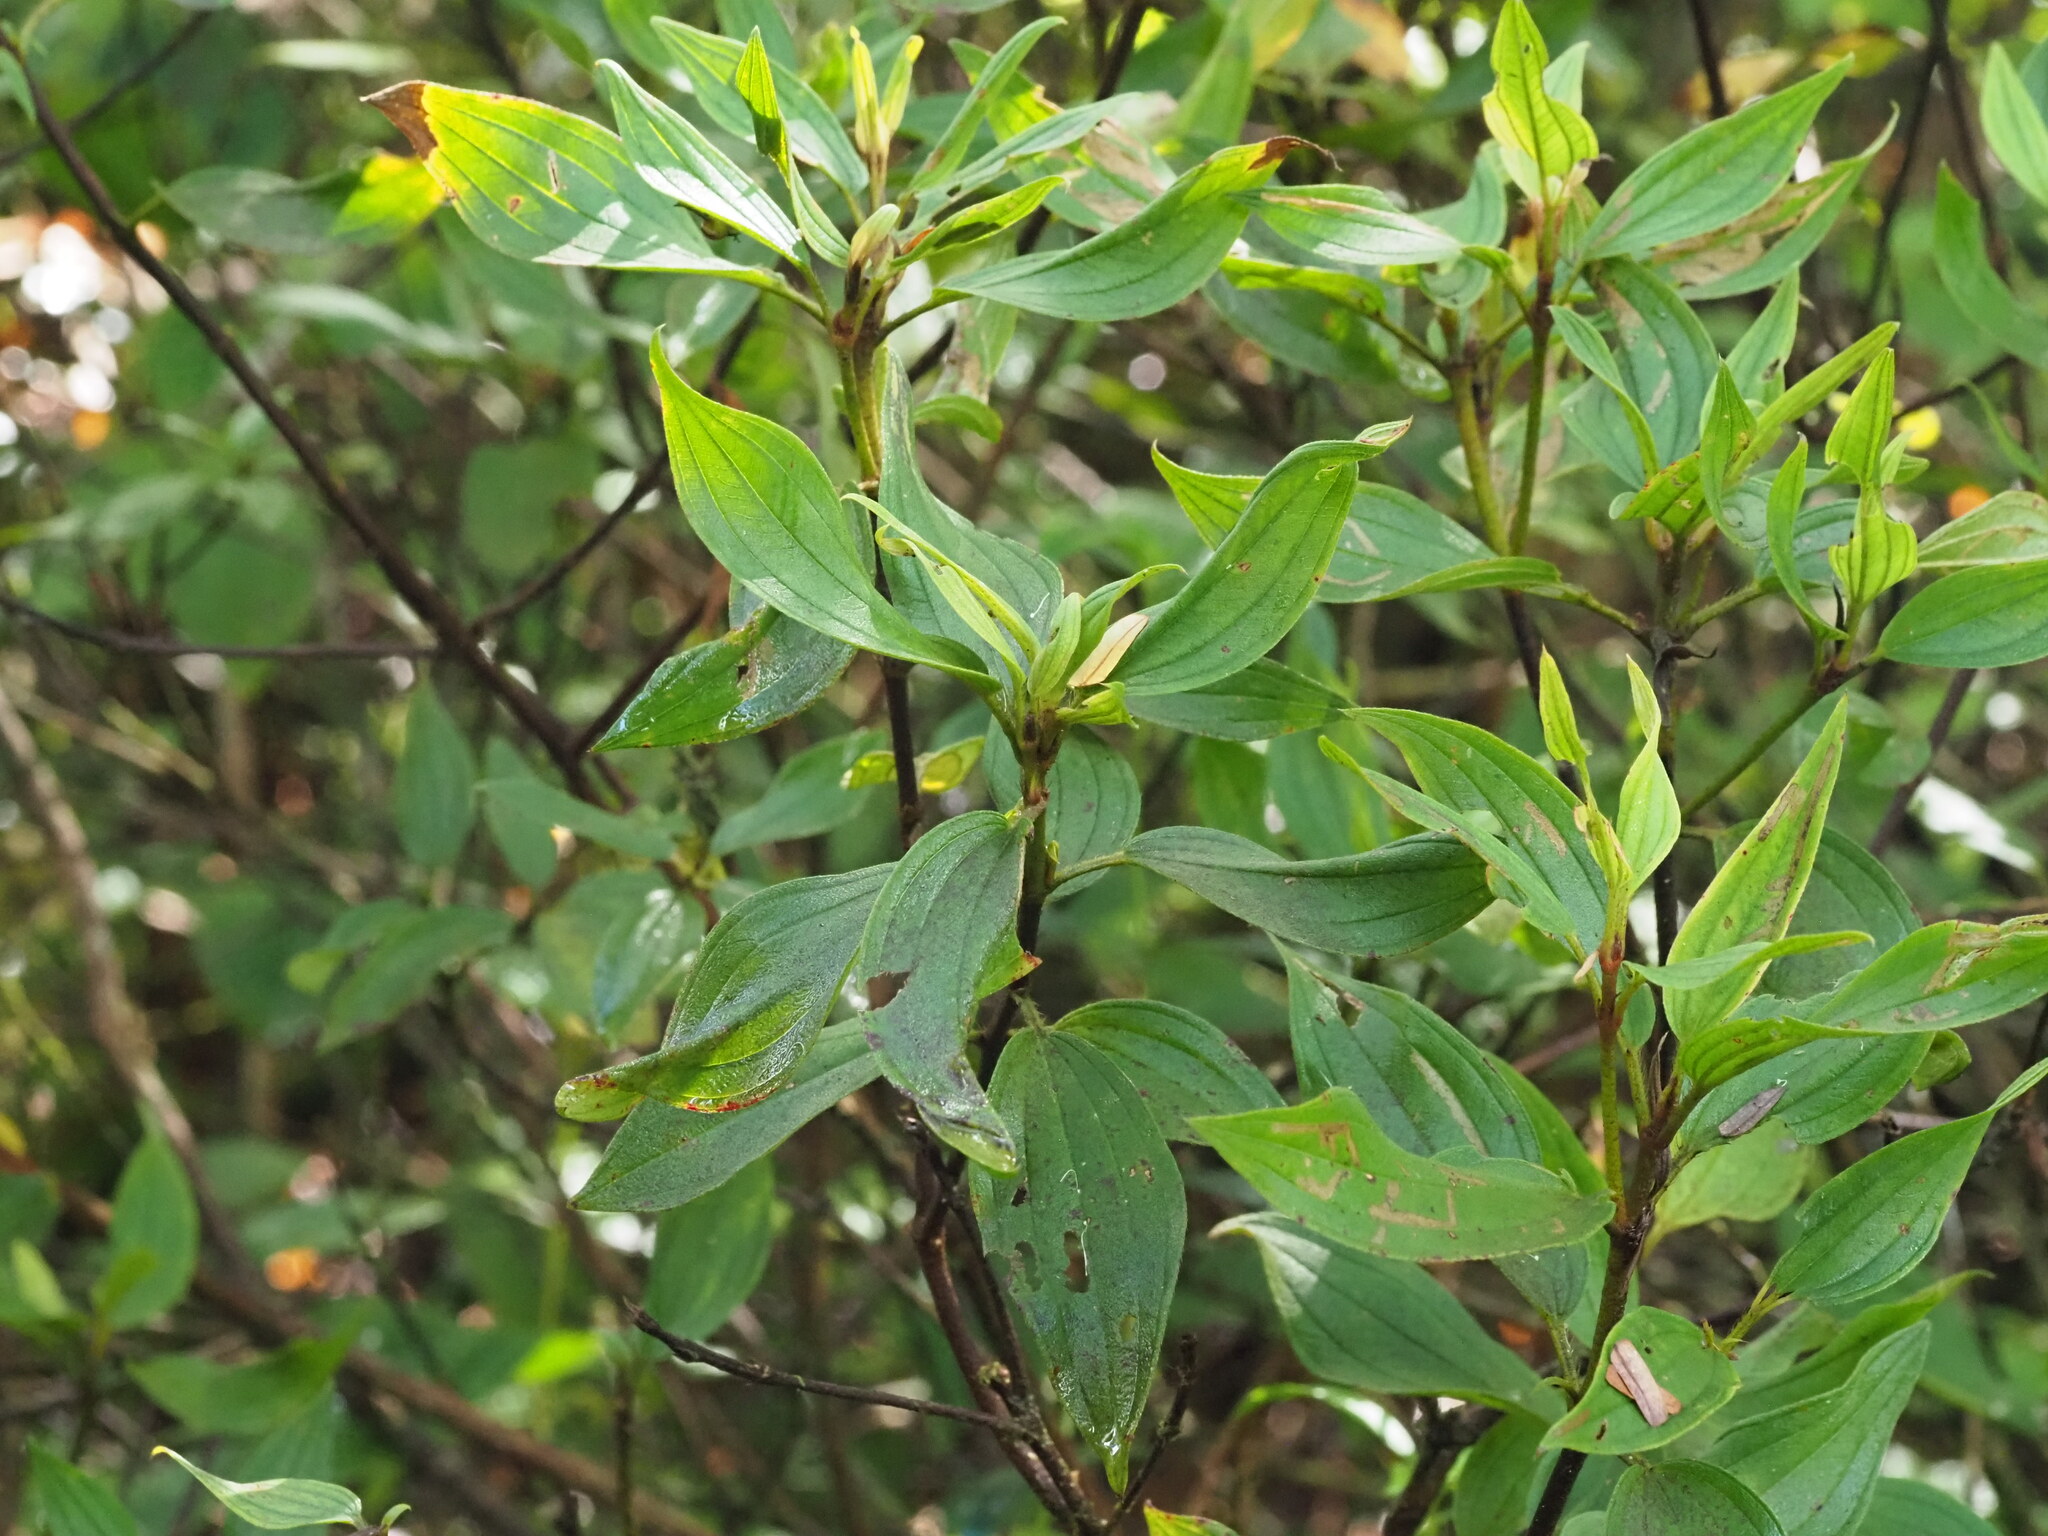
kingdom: Plantae
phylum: Tracheophyta
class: Magnoliopsida
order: Myrtales
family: Melastomataceae
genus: Melastoma
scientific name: Melastoma malabathricum
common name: Indian-rhododendron
